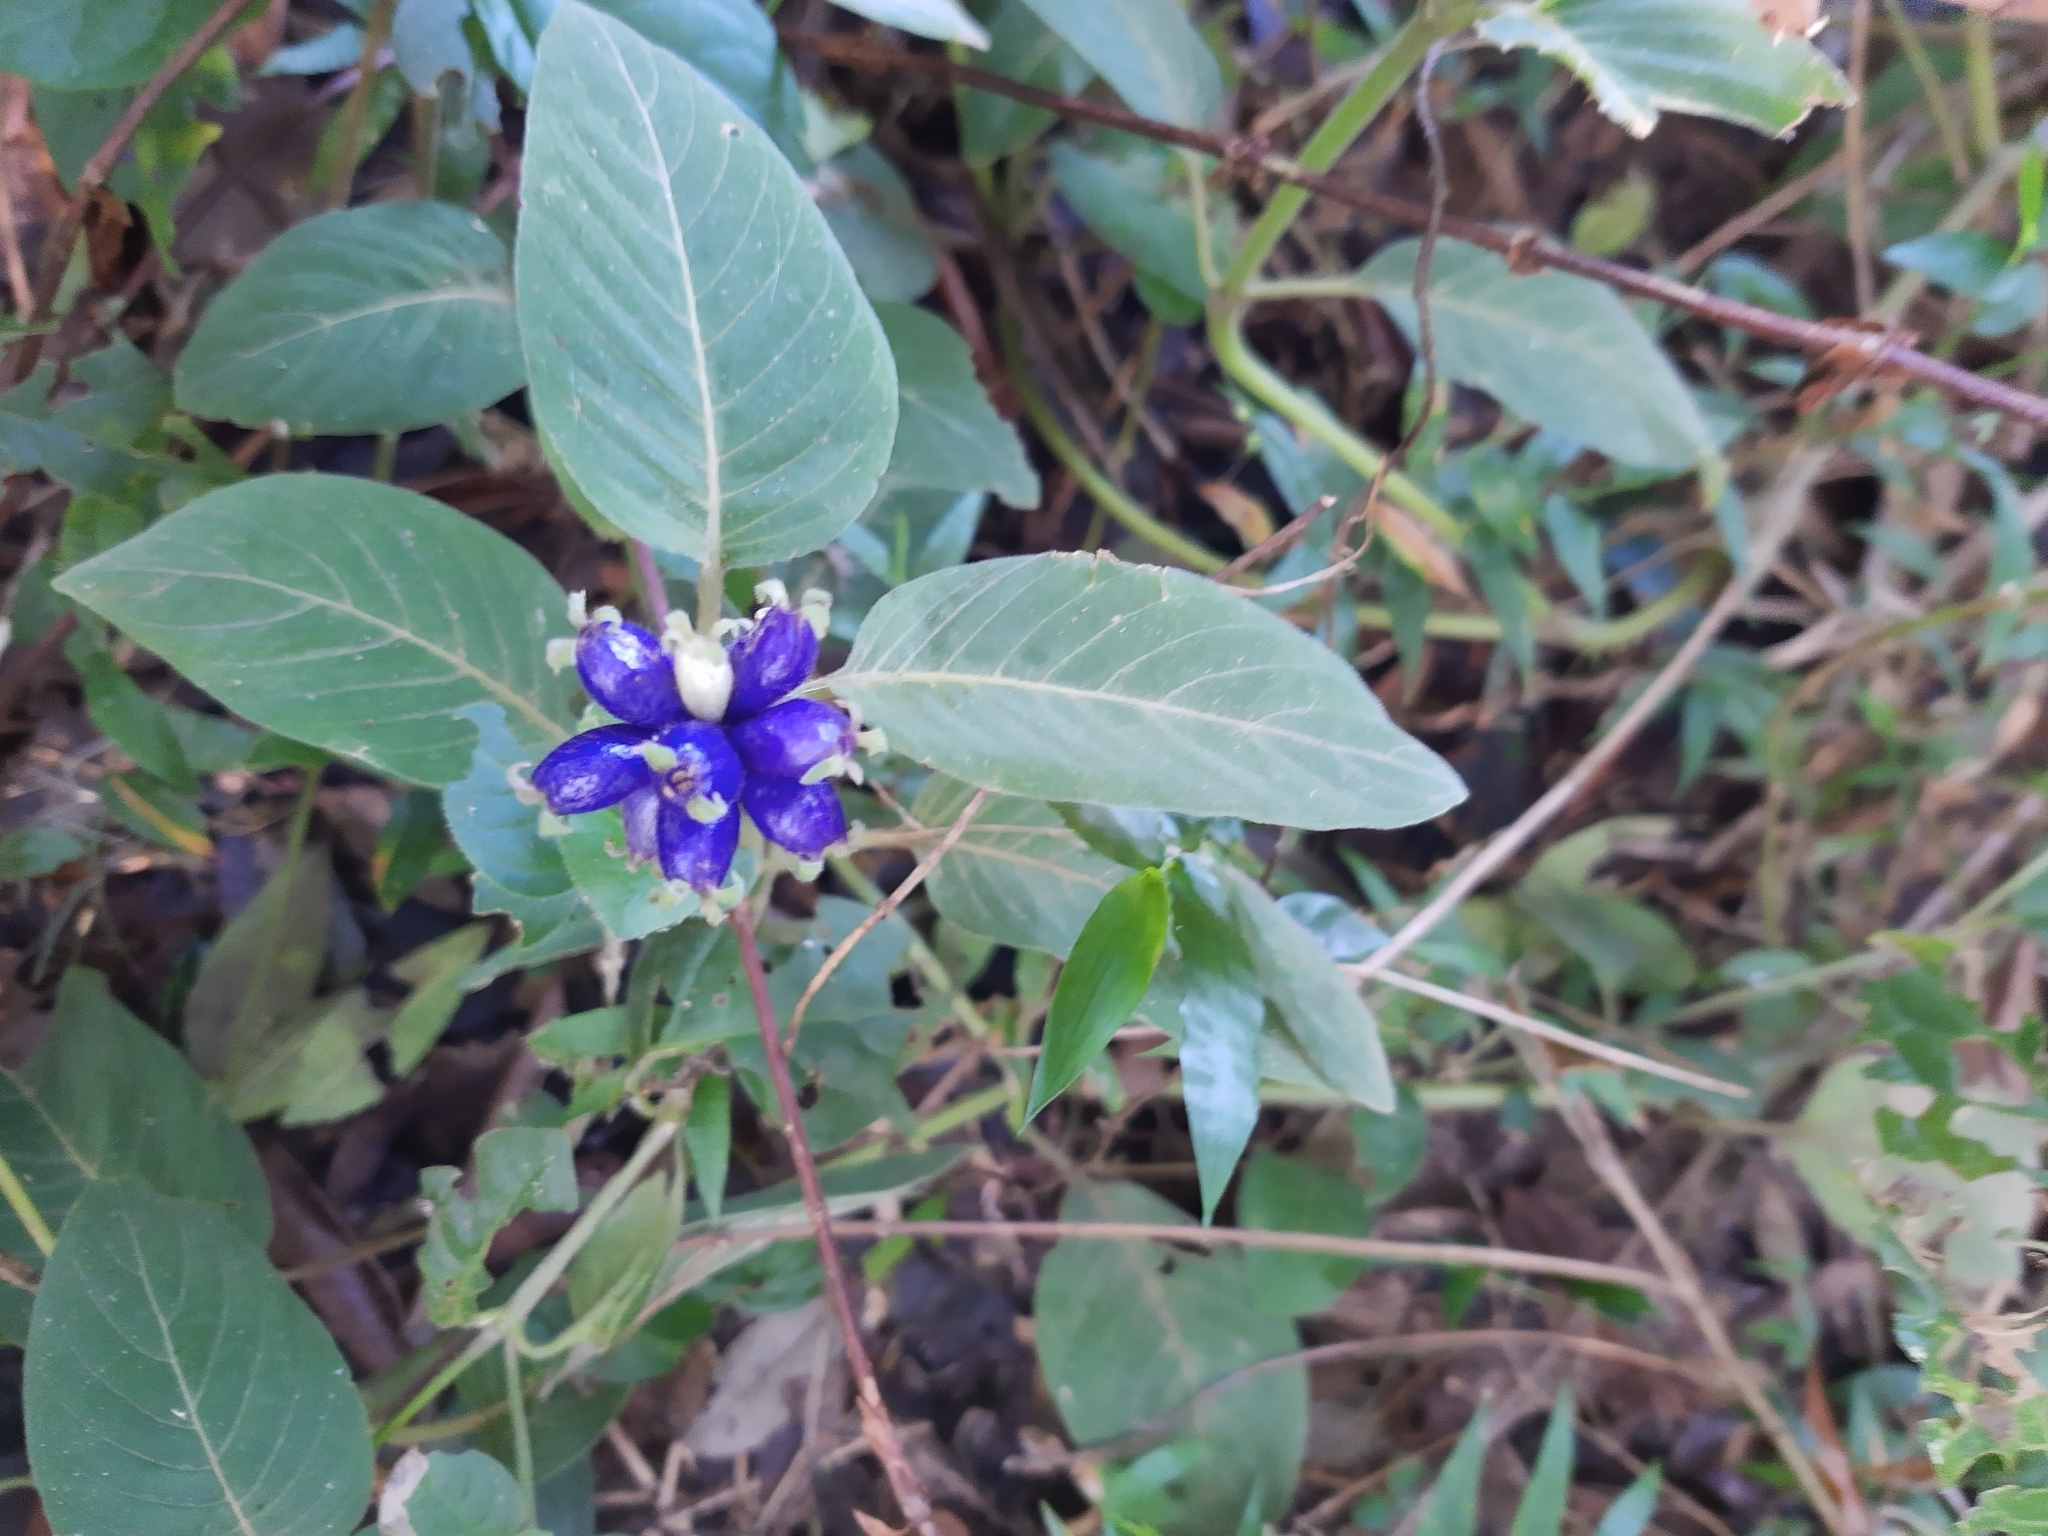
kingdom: Plantae
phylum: Tracheophyta
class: Magnoliopsida
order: Gentianales
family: Rubiaceae
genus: Coccocypselum
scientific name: Coccocypselum lanceolatum
